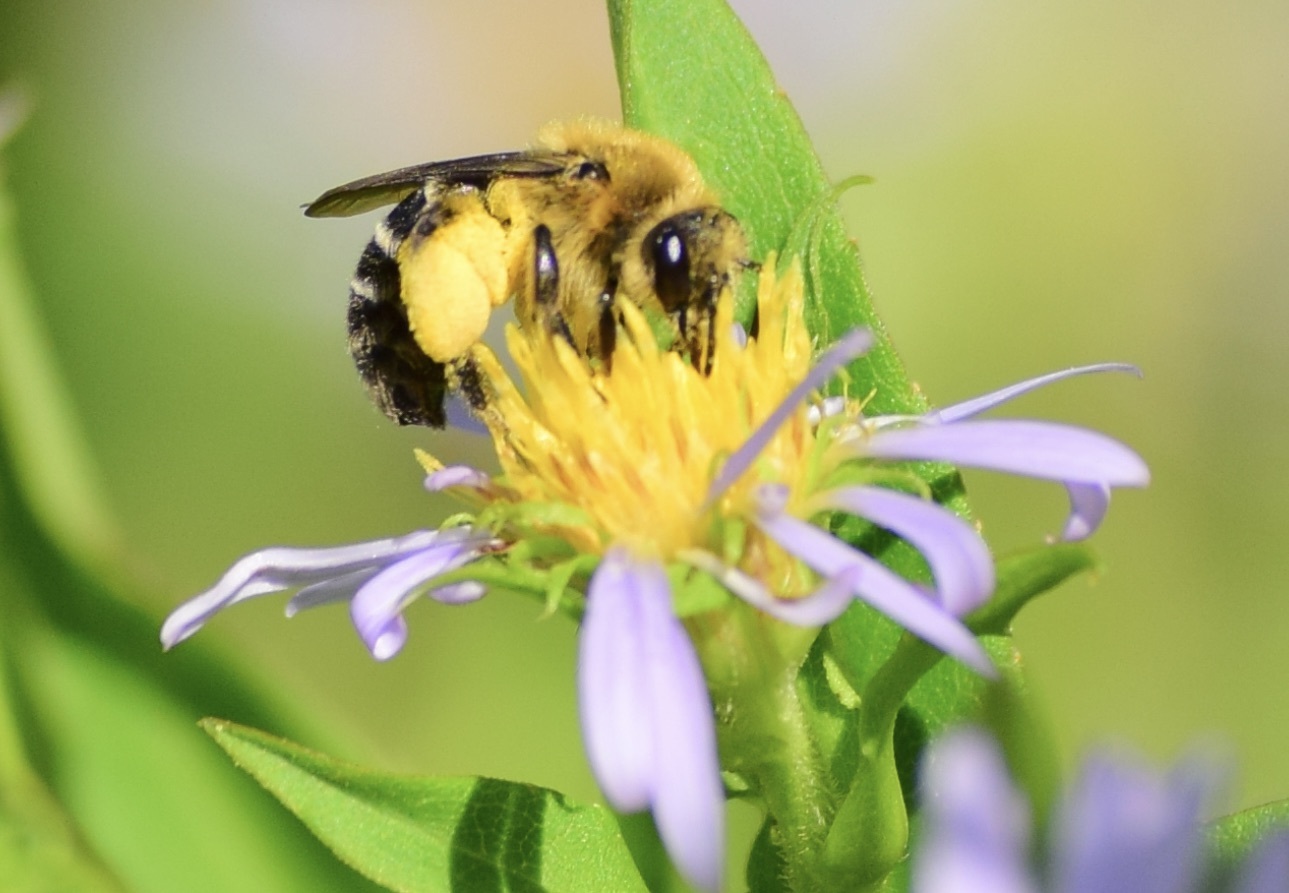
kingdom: Animalia
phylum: Arthropoda
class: Insecta
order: Hymenoptera
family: Andrenidae
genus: Andrena
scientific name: Andrena asteris
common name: Aster mining bee
